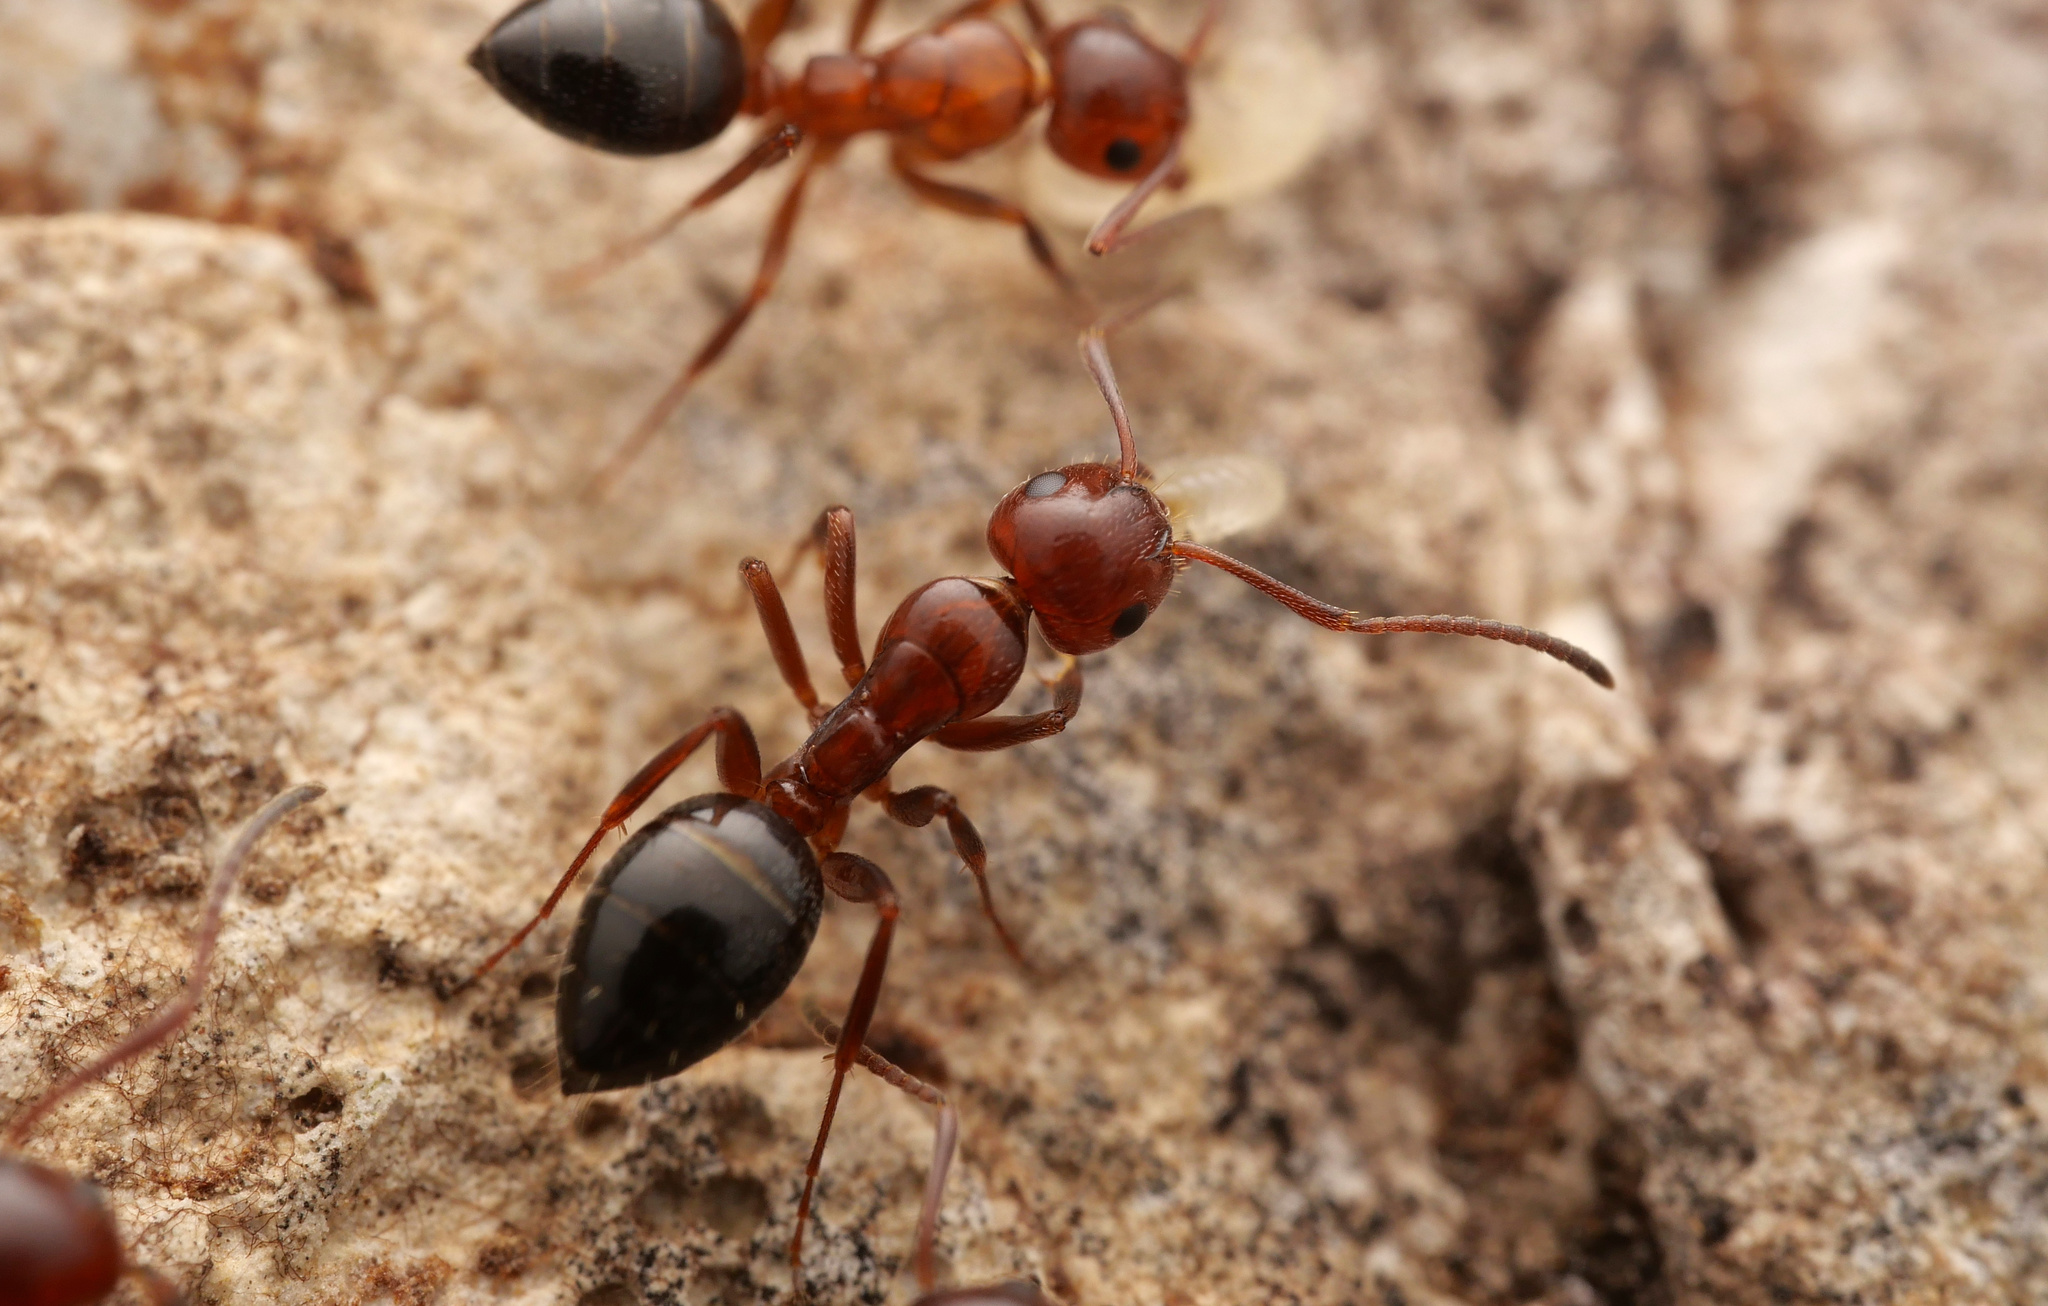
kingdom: Animalia
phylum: Arthropoda
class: Insecta
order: Hymenoptera
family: Formicidae
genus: Camponotus
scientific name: Camponotus lateralis
